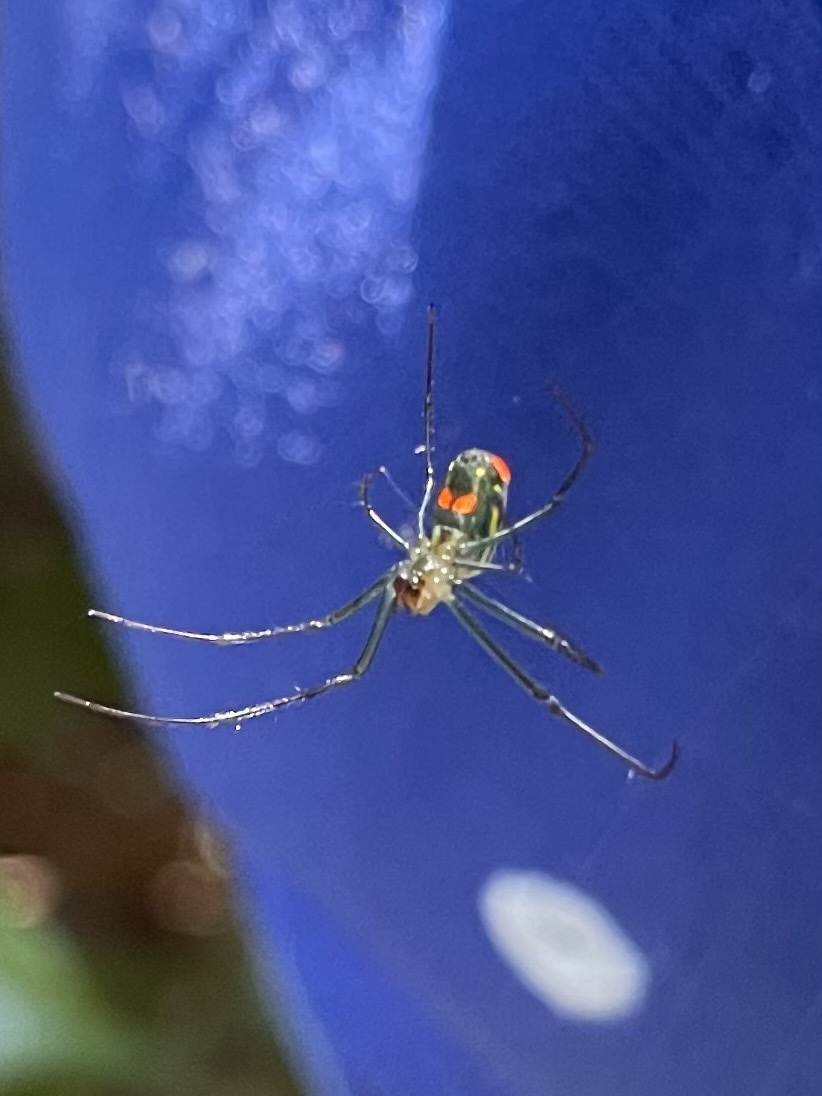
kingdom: Animalia
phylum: Arthropoda
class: Arachnida
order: Araneae
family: Tetragnathidae
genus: Leucauge
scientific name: Leucauge argyrobapta
